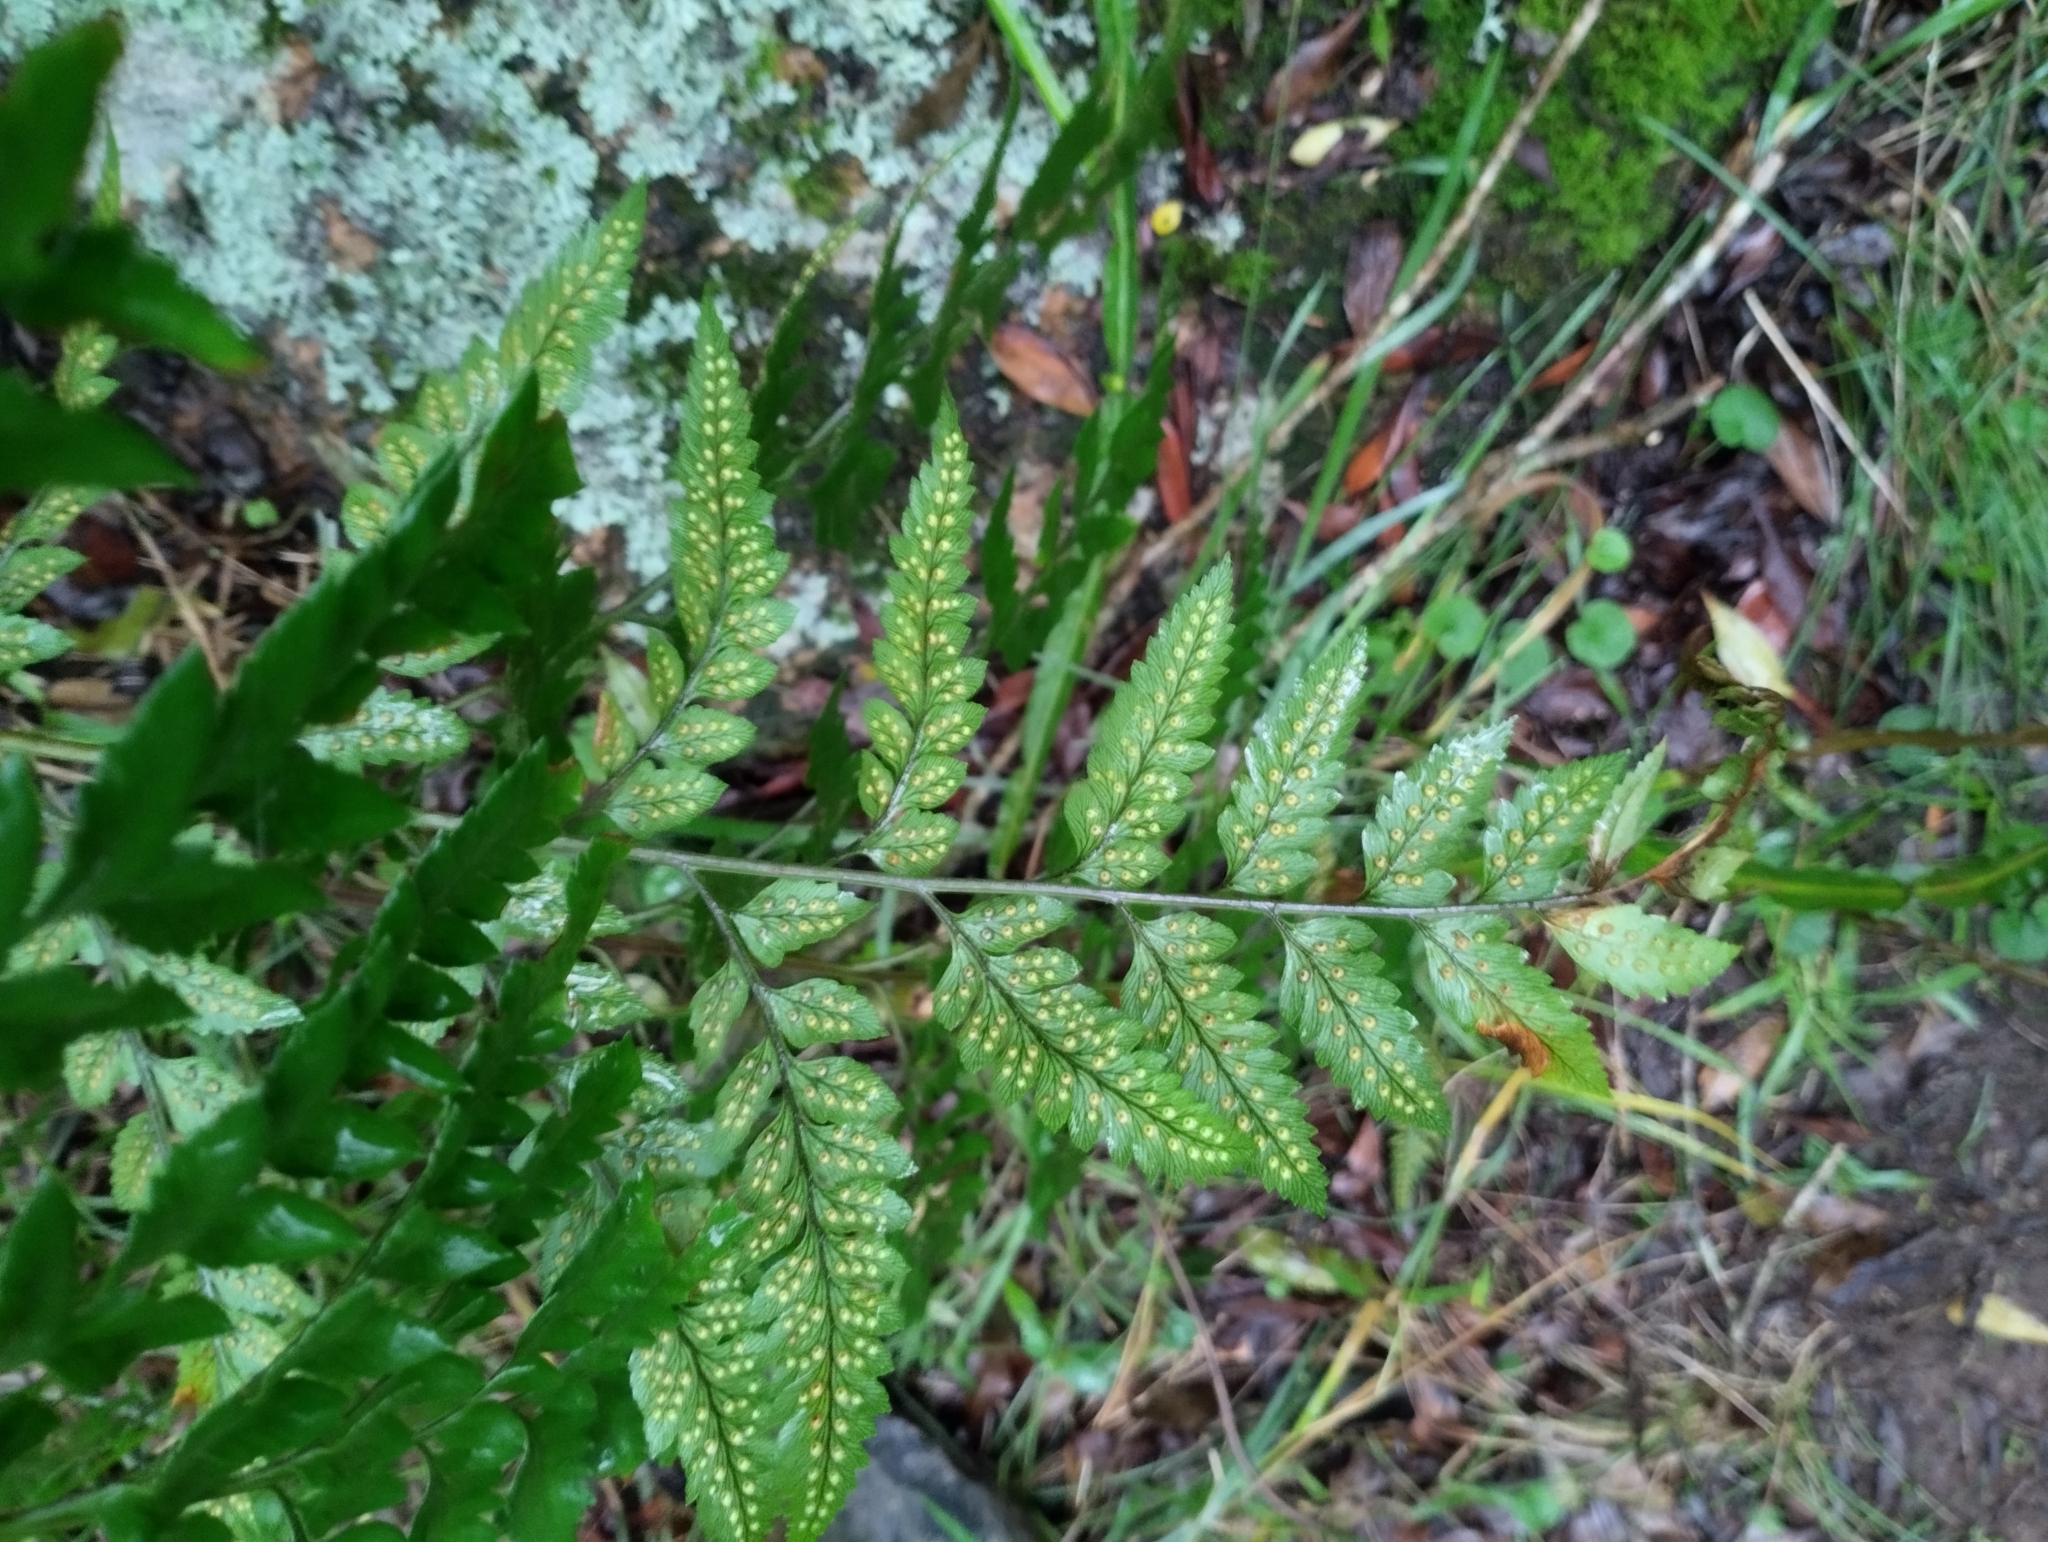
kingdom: Plantae
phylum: Tracheophyta
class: Polypodiopsida
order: Polypodiales
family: Dryopteridaceae
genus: Rumohra
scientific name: Rumohra adiantiformis
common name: Leather fern
